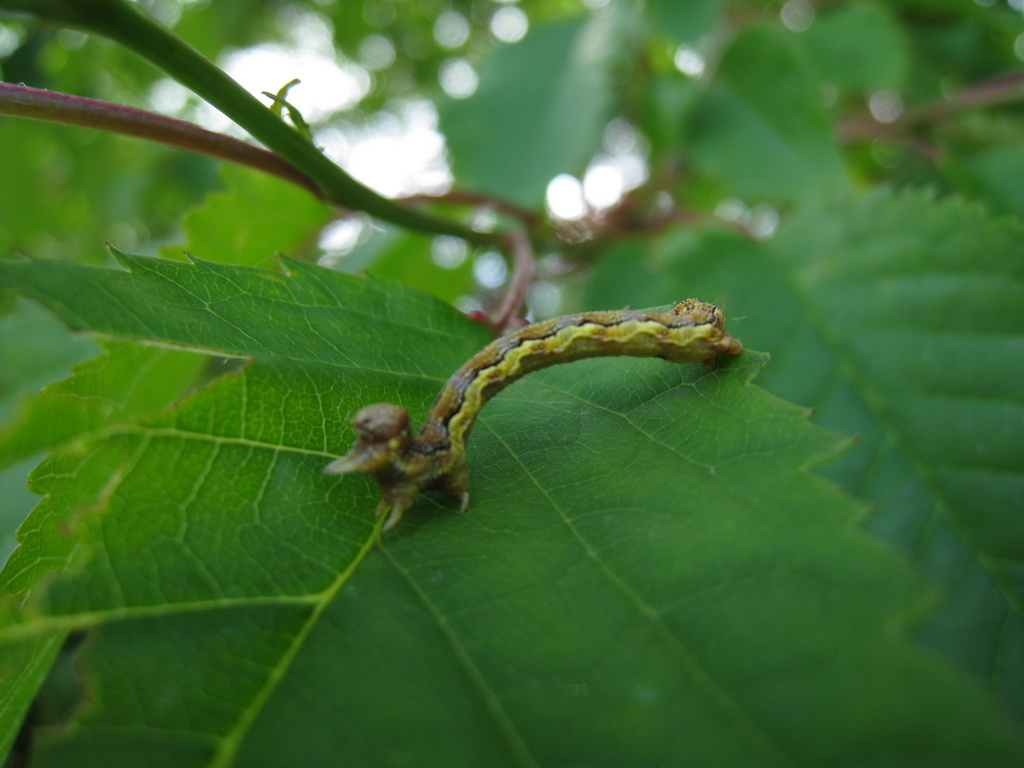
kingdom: Animalia
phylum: Arthropoda
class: Insecta
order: Lepidoptera
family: Geometridae
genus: Erannis
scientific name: Erannis defoliaria
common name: Mottled umber
